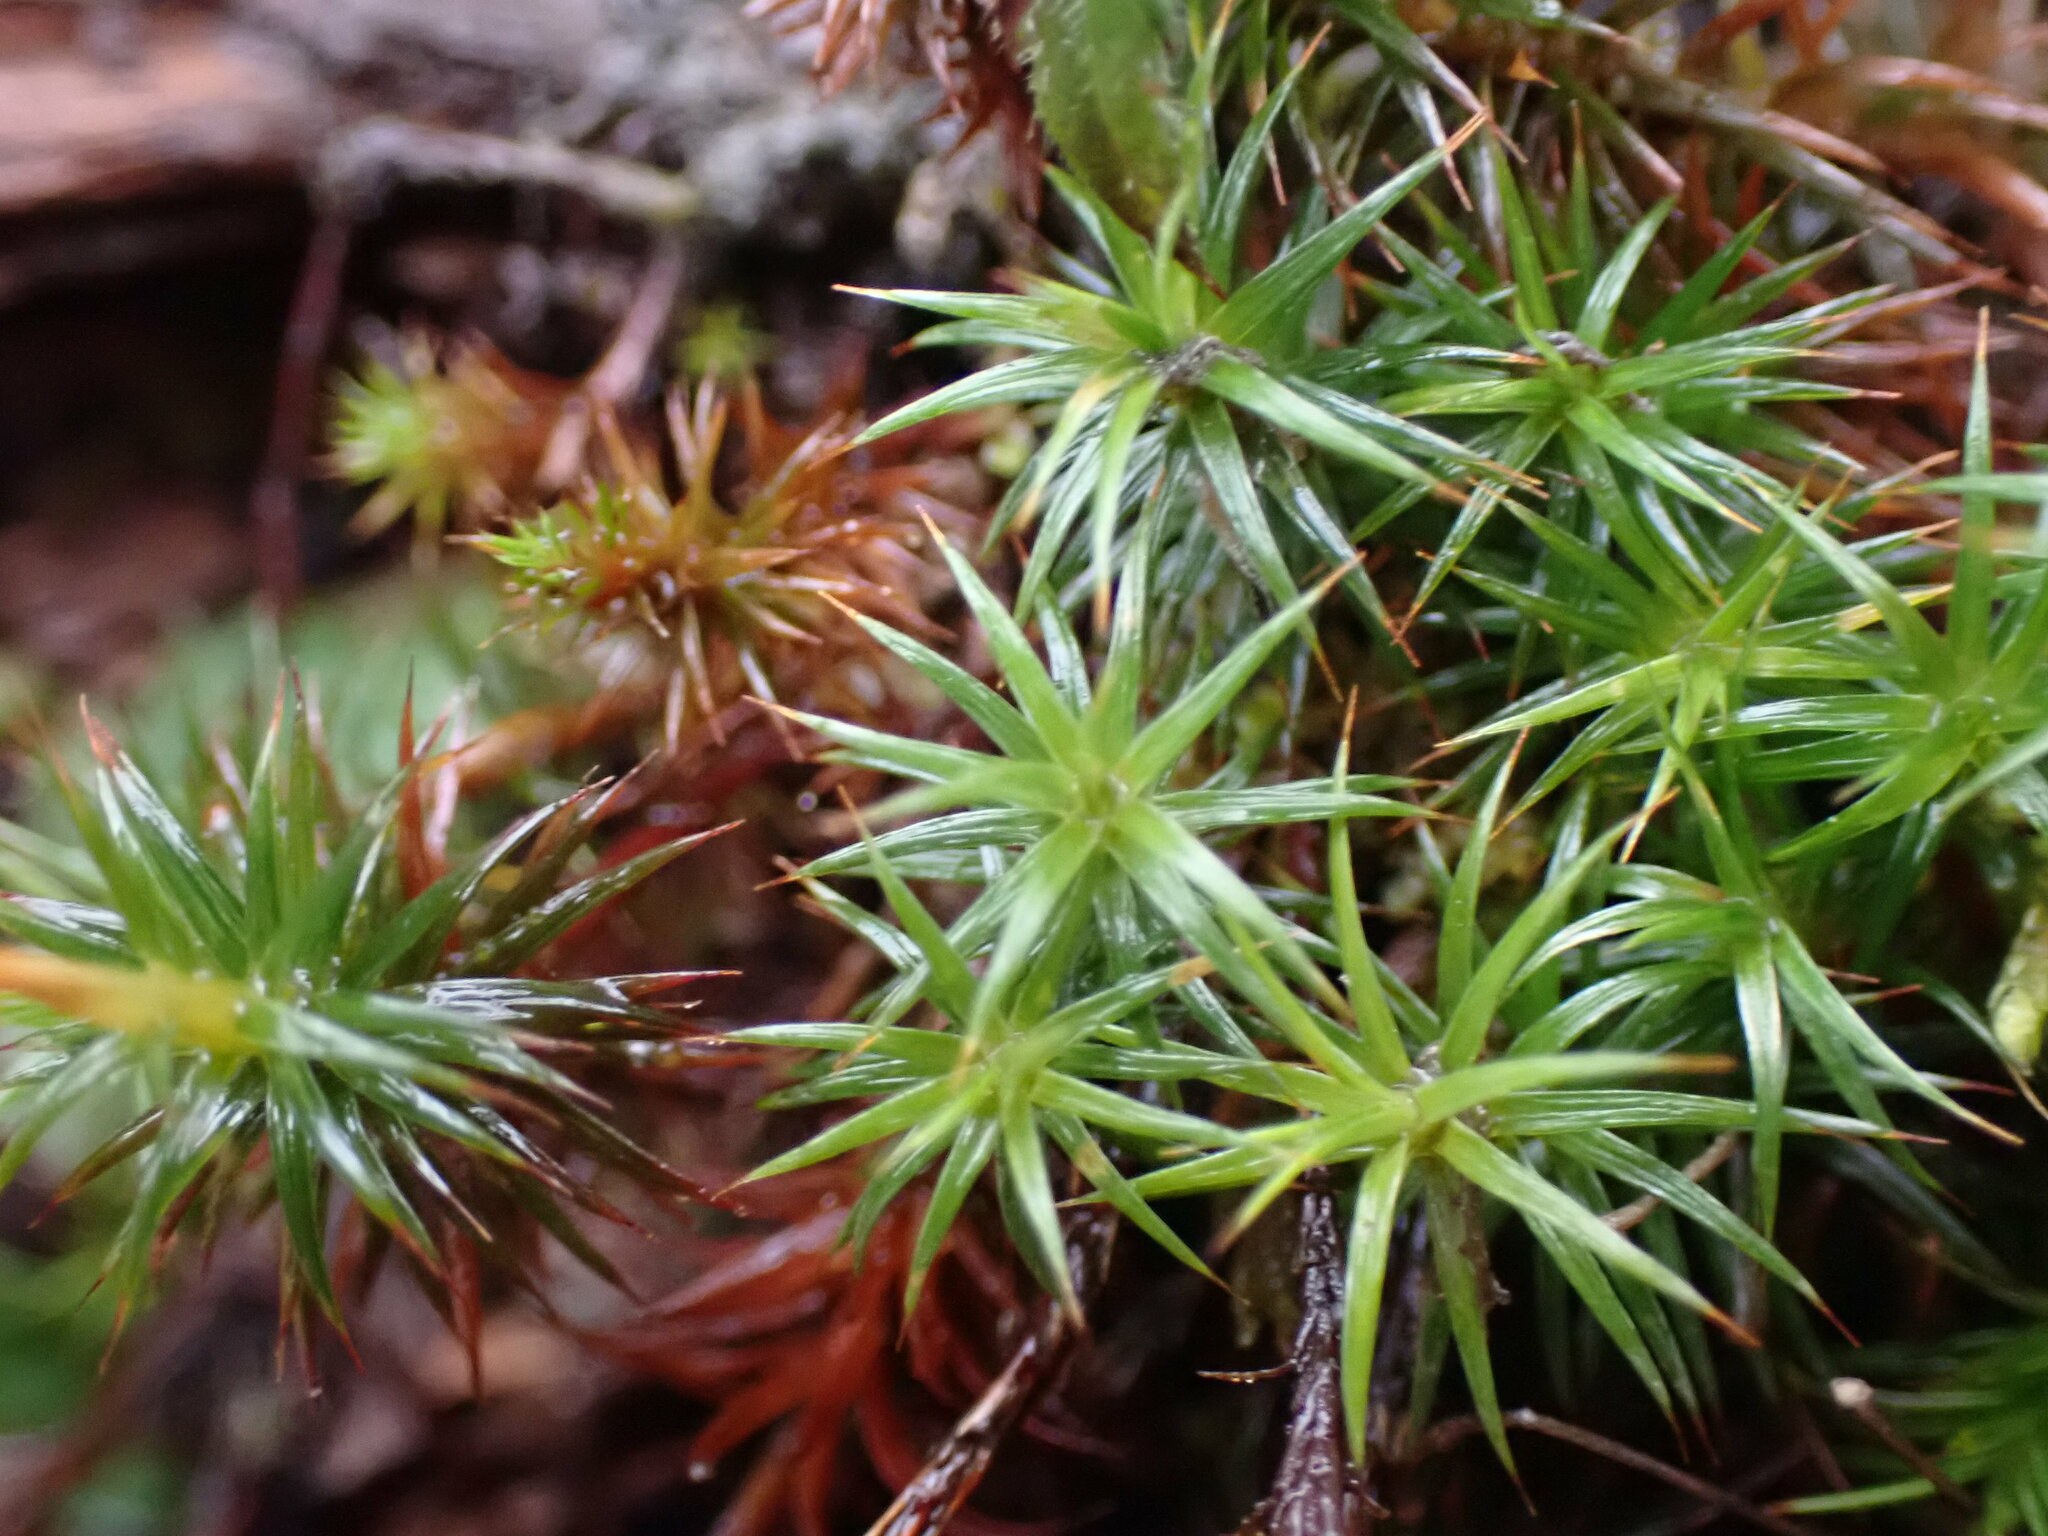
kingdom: Plantae
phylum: Bryophyta
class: Polytrichopsida
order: Polytrichales
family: Polytrichaceae
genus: Polytrichum
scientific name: Polytrichum juniperinum
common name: Juniper haircap moss
